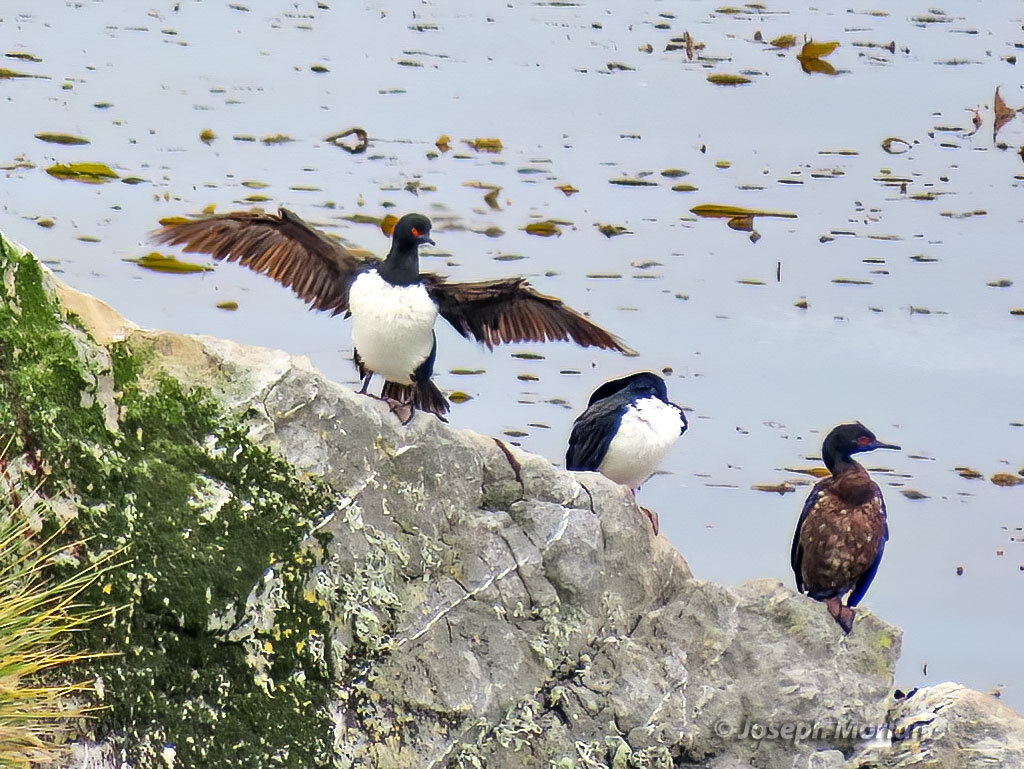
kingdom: Animalia
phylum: Chordata
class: Aves
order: Suliformes
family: Phalacrocoracidae
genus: Phalacrocorax
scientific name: Phalacrocorax magellanicus
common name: Rock shag
